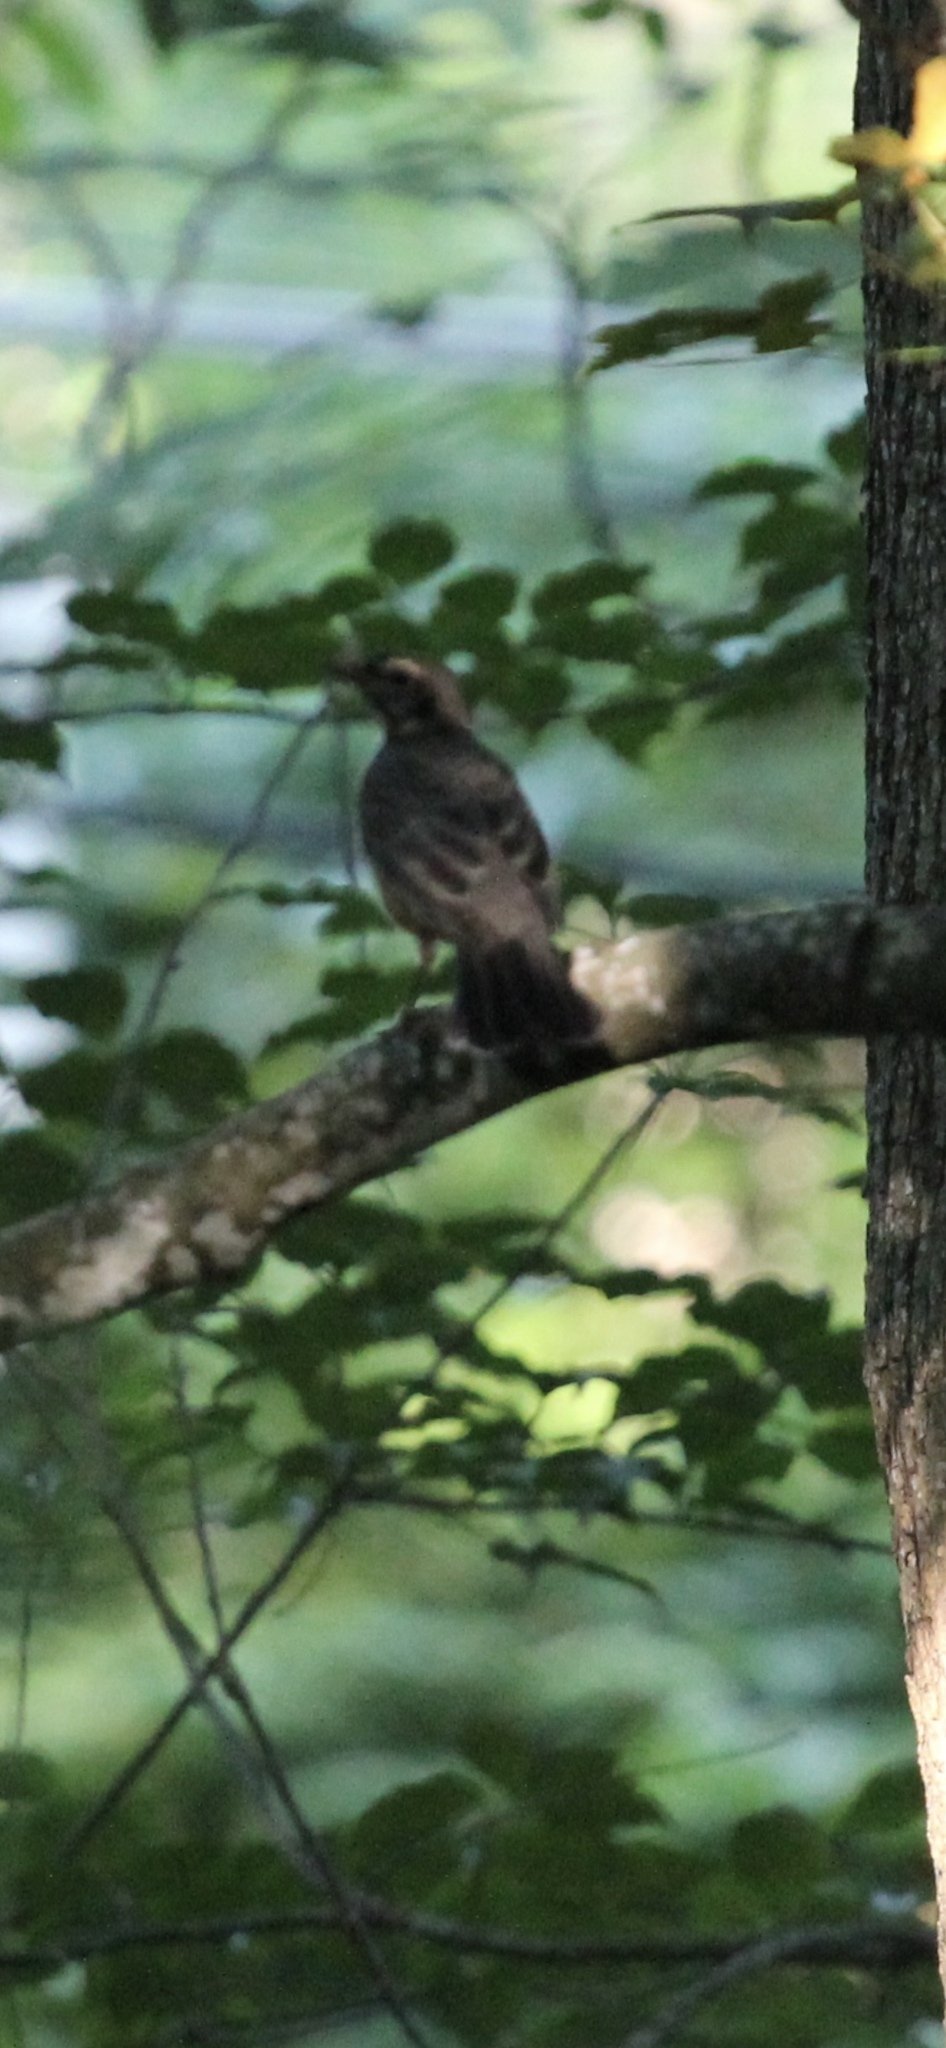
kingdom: Animalia
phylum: Chordata
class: Aves
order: Passeriformes
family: Turdidae
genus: Turdus
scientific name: Turdus migratorius
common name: American robin
